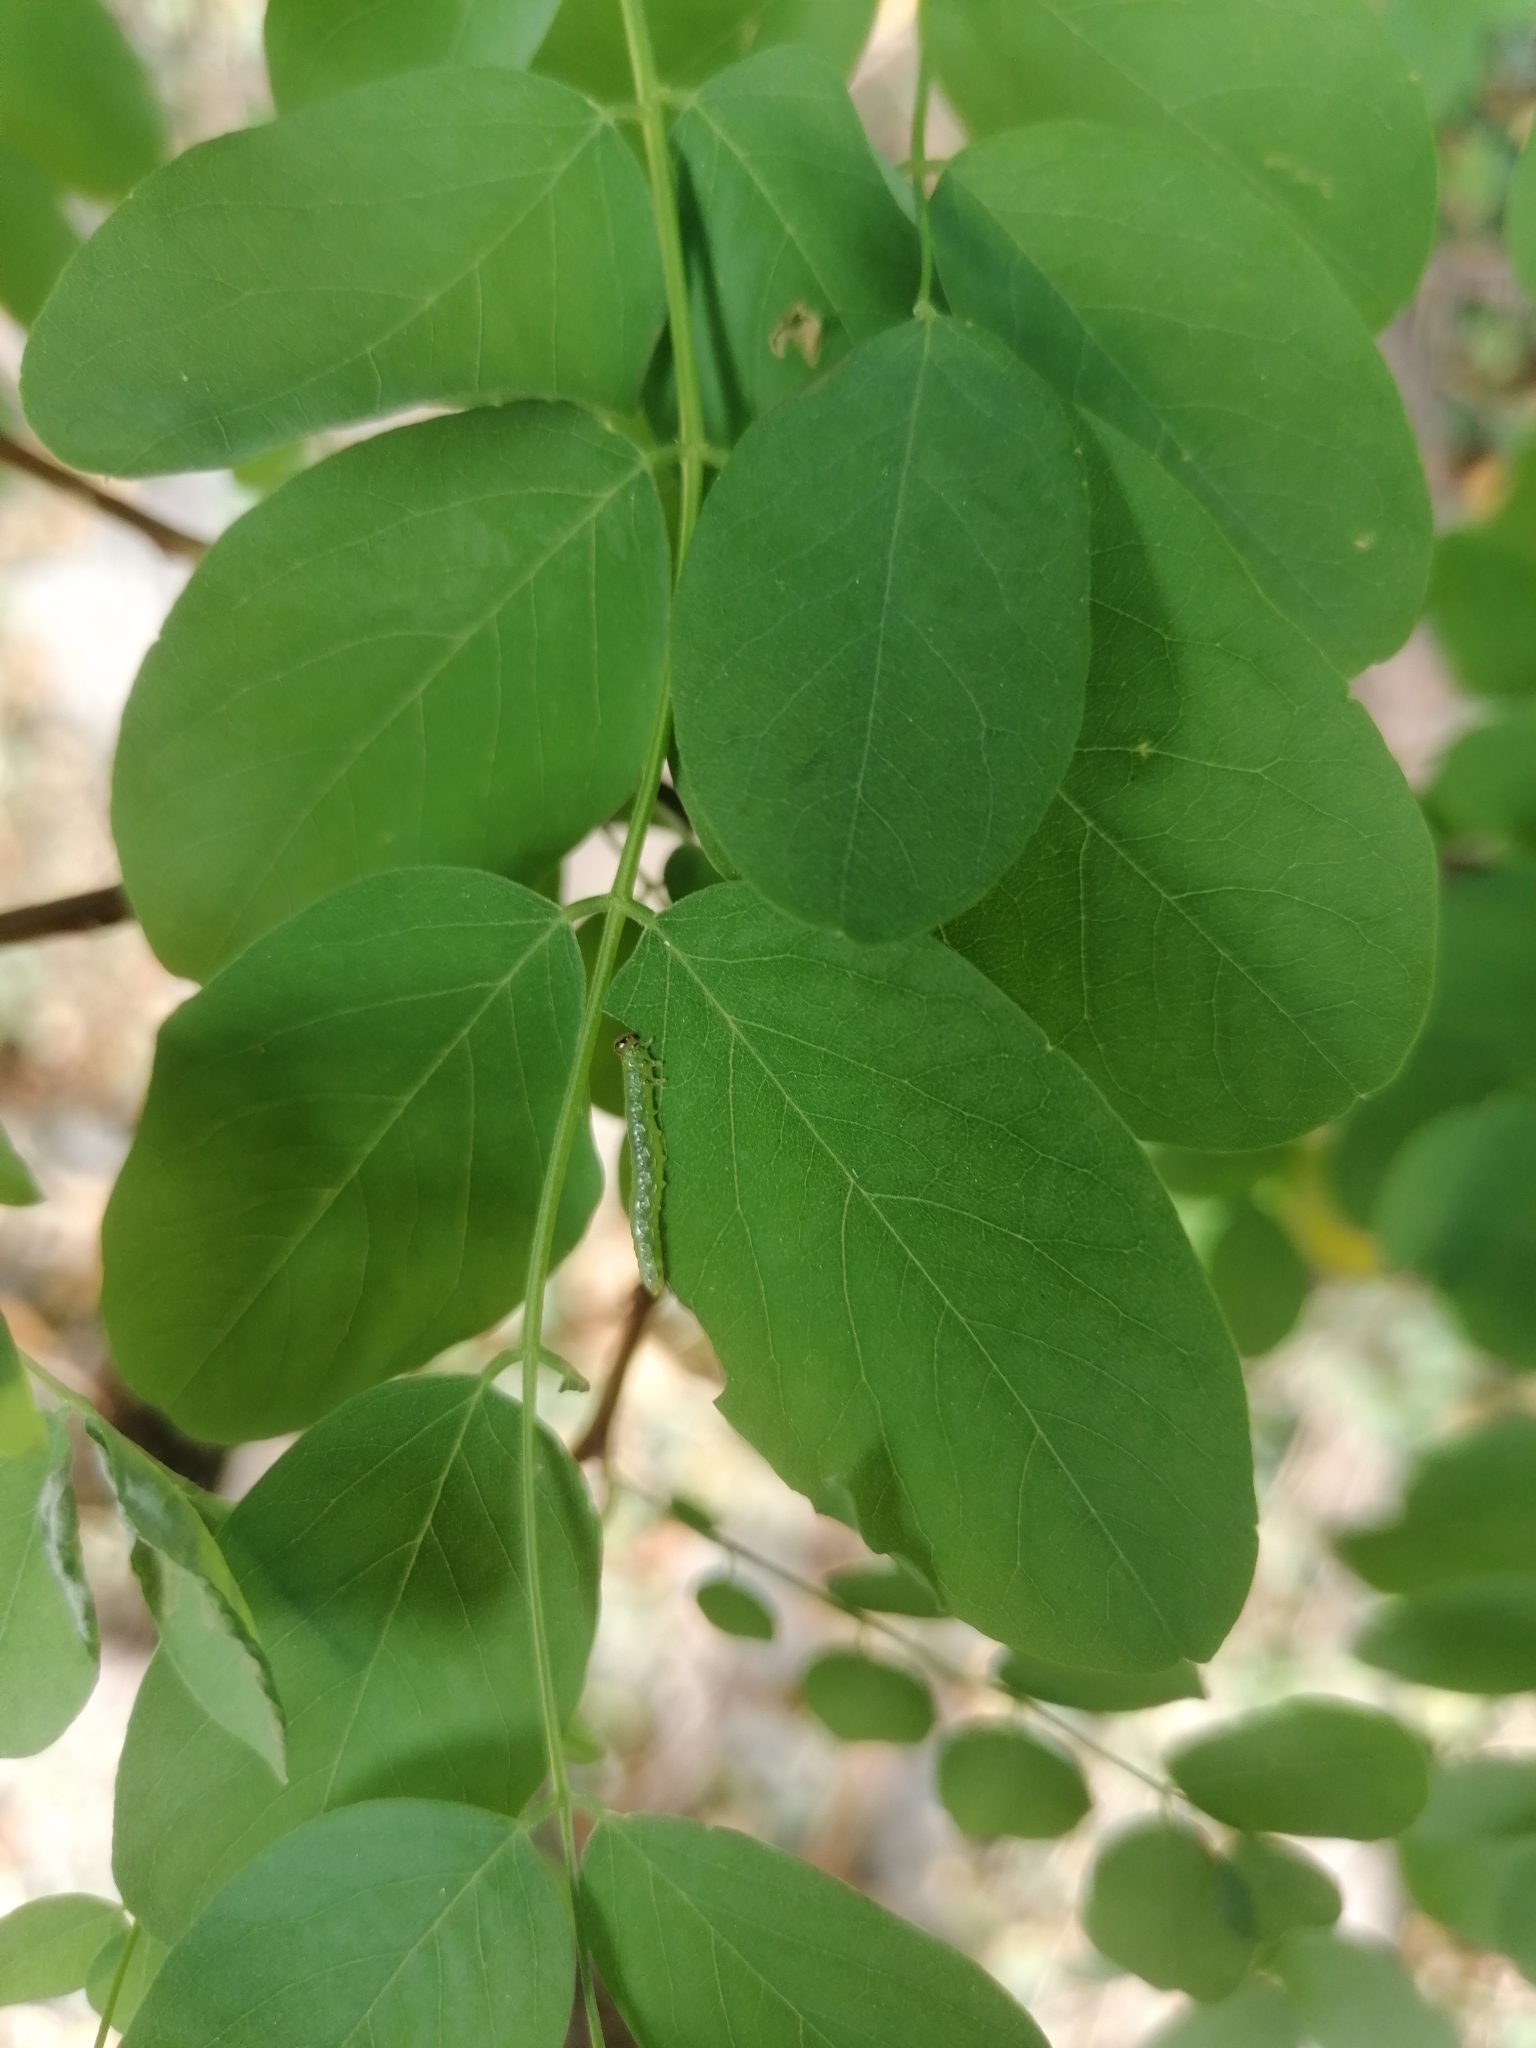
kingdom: Animalia
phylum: Arthropoda
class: Insecta
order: Hymenoptera
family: Tenthredinidae
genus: Euura
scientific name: Euura tibialis
